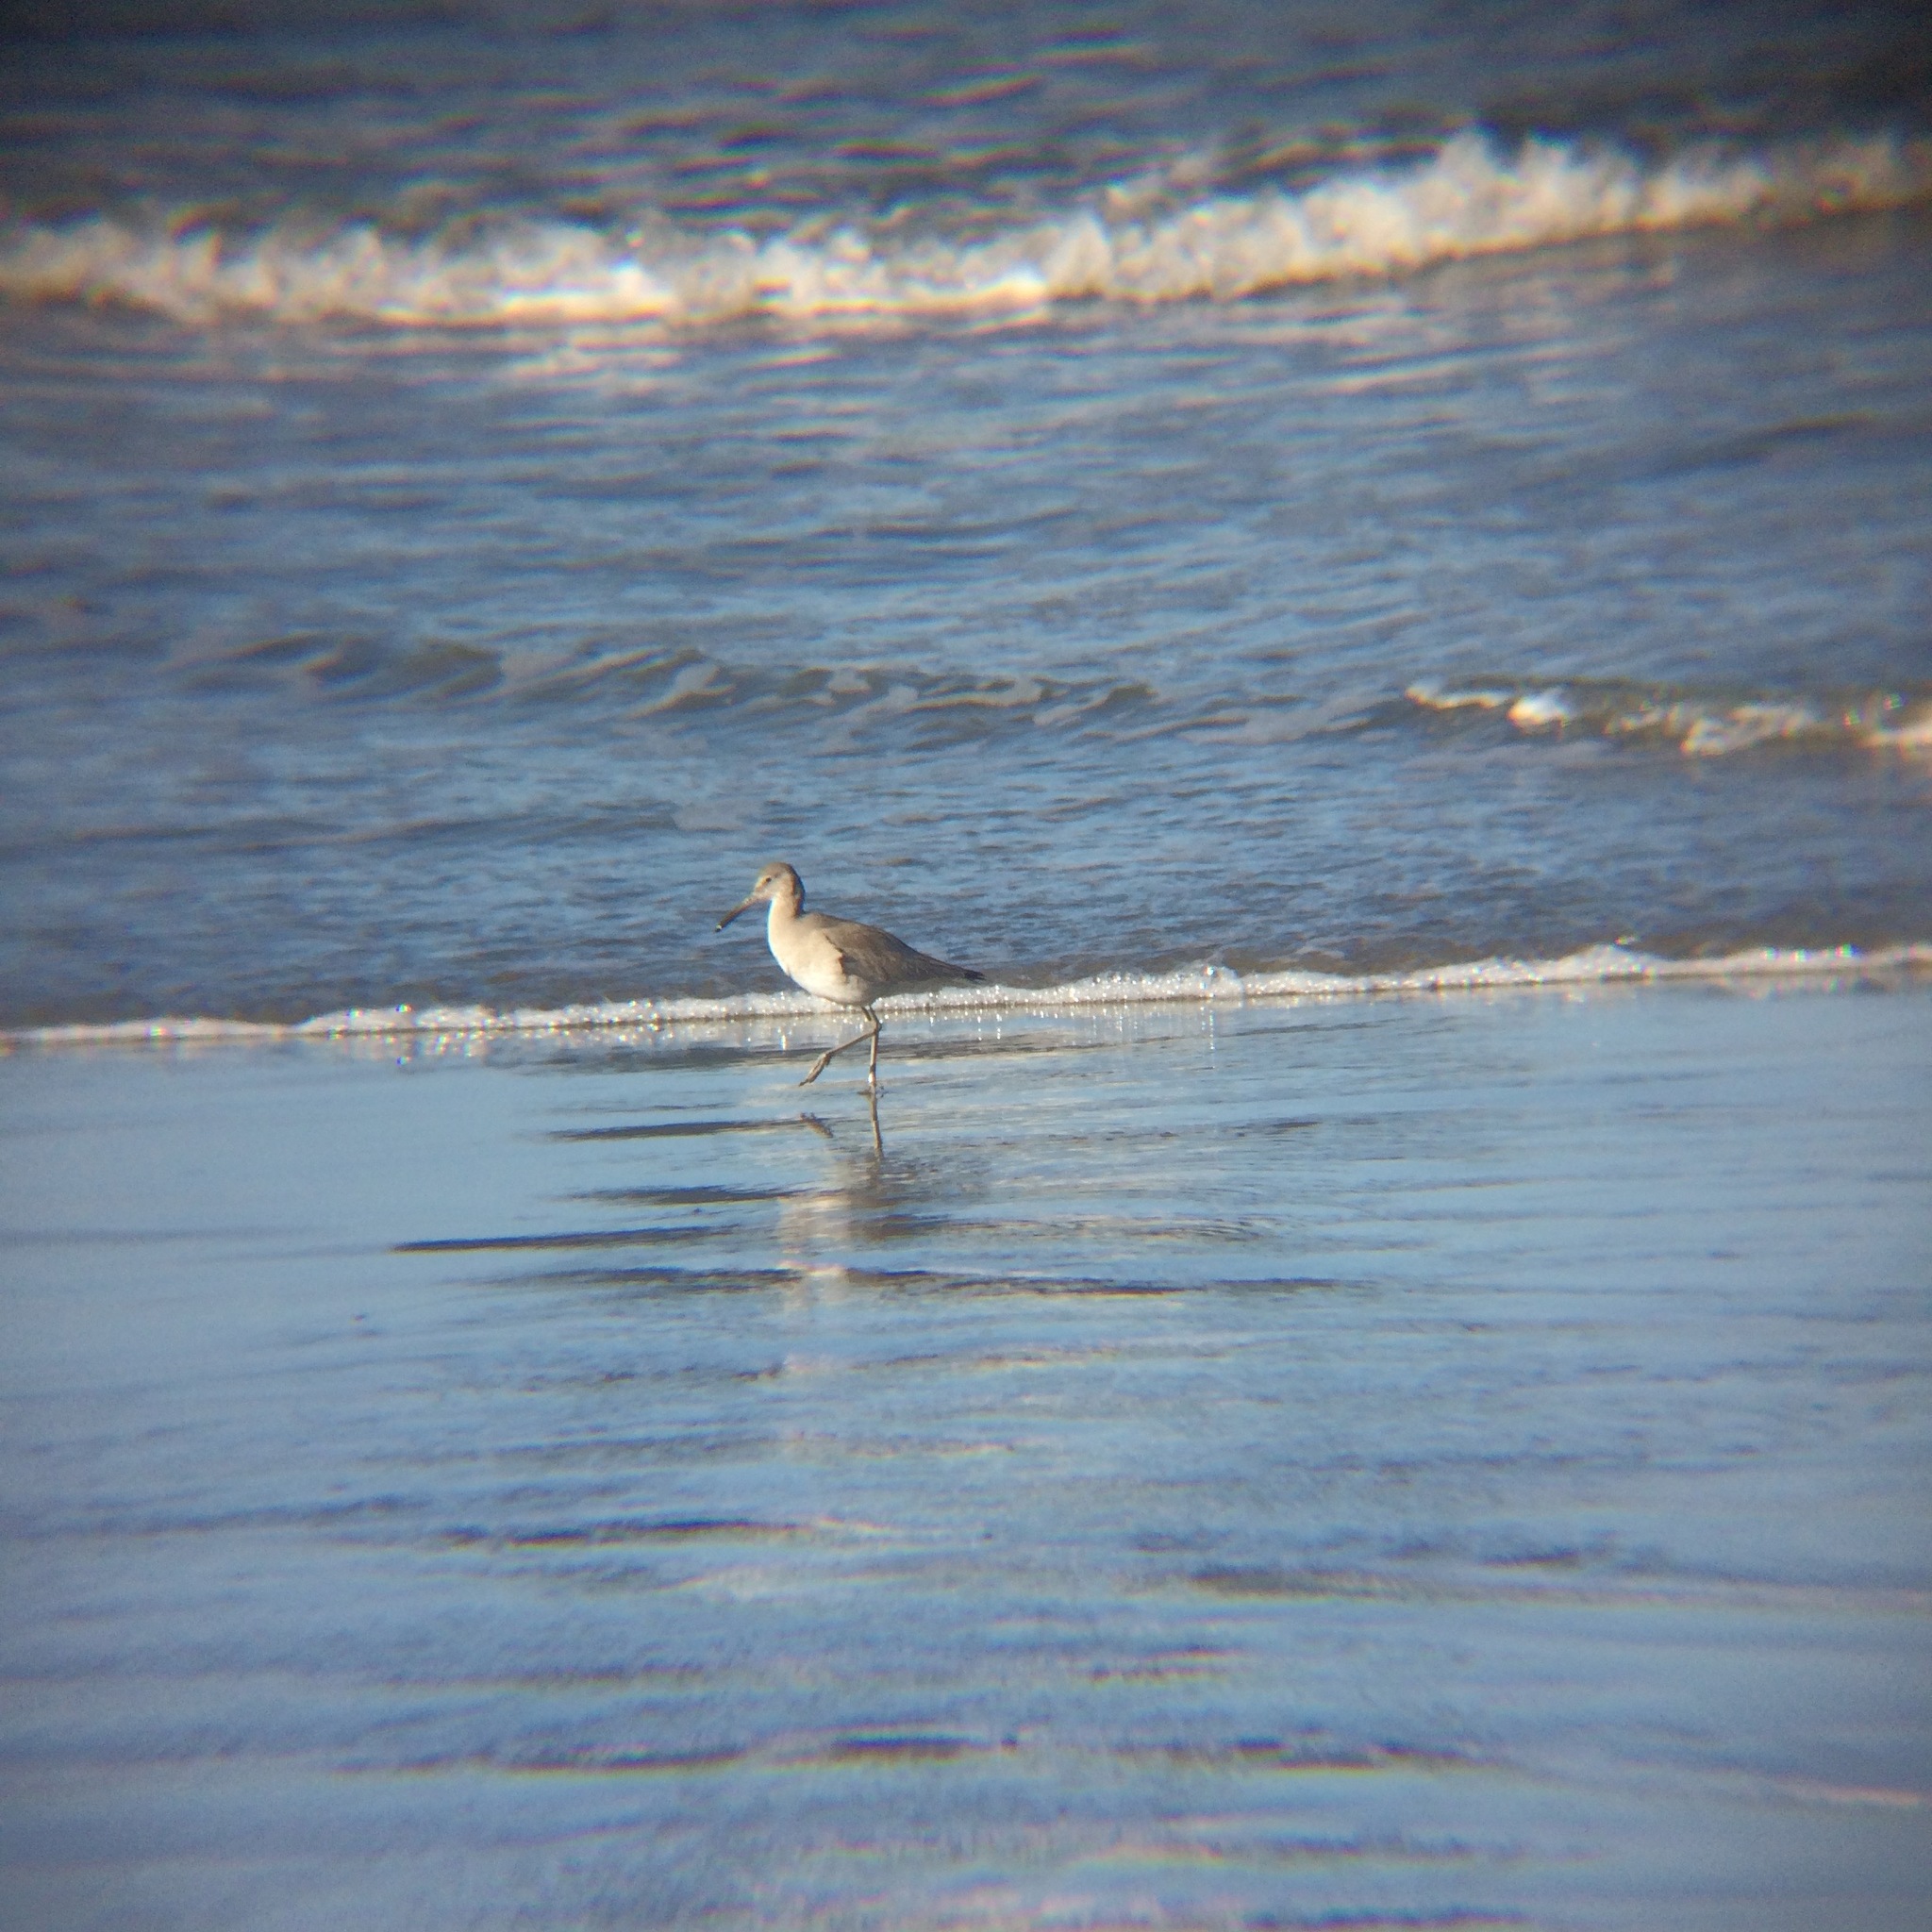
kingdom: Animalia
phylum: Chordata
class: Aves
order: Charadriiformes
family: Scolopacidae
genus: Tringa
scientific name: Tringa semipalmata
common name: Willet
